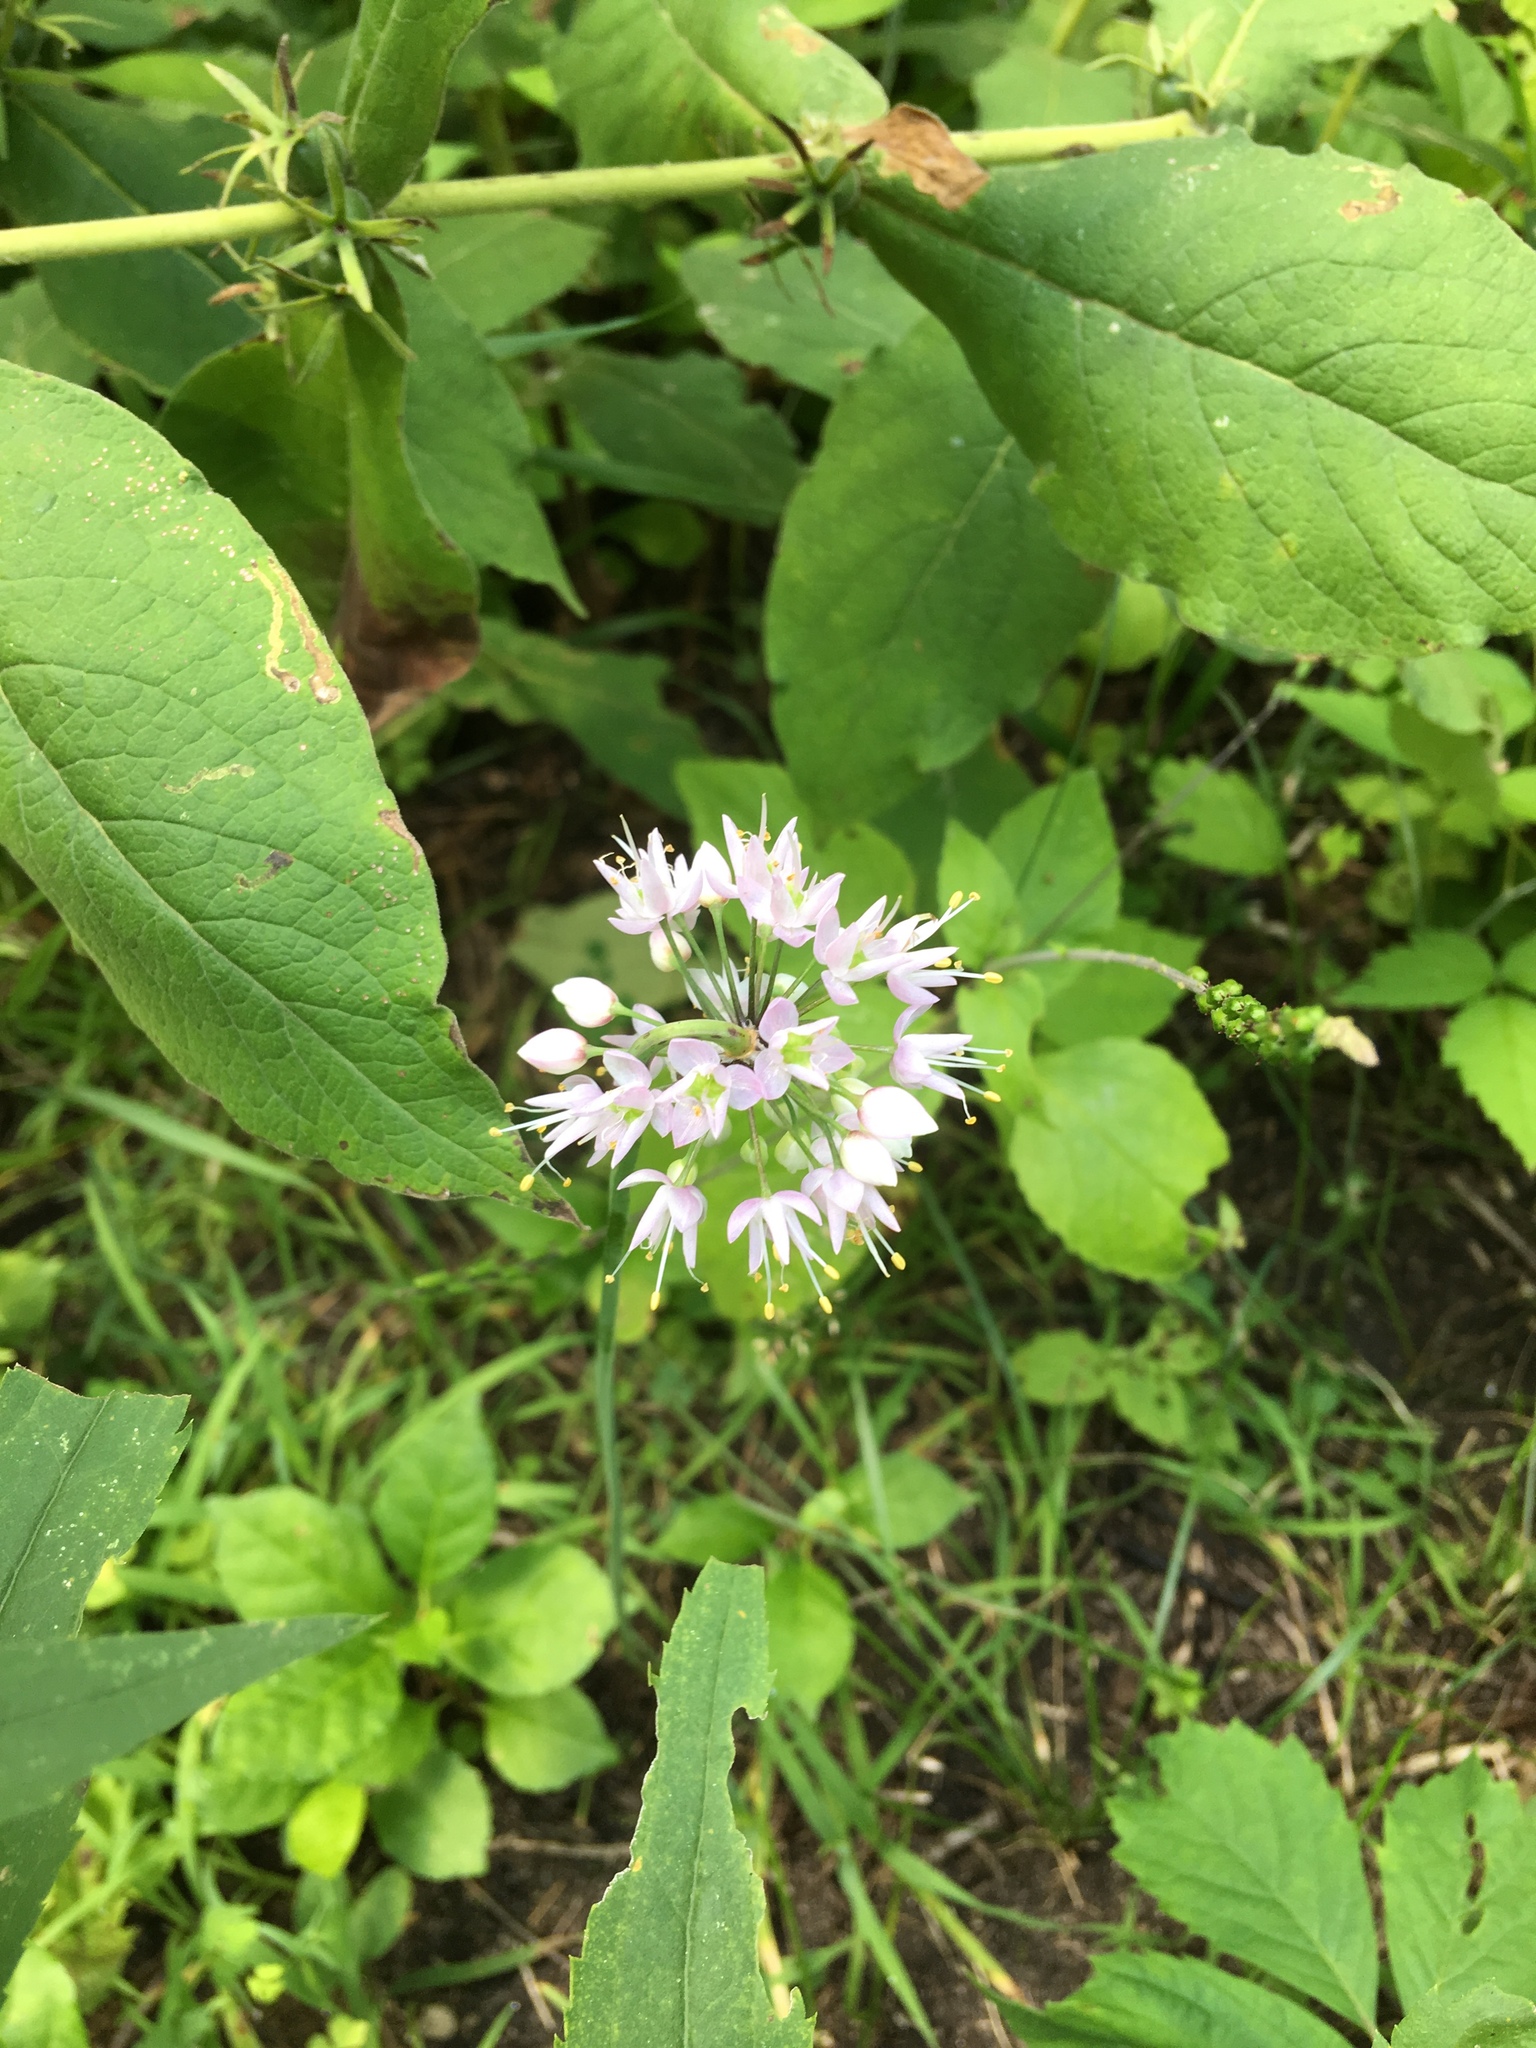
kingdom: Plantae
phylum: Tracheophyta
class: Liliopsida
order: Asparagales
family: Amaryllidaceae
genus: Allium
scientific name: Allium cernuum
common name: Nodding onion
